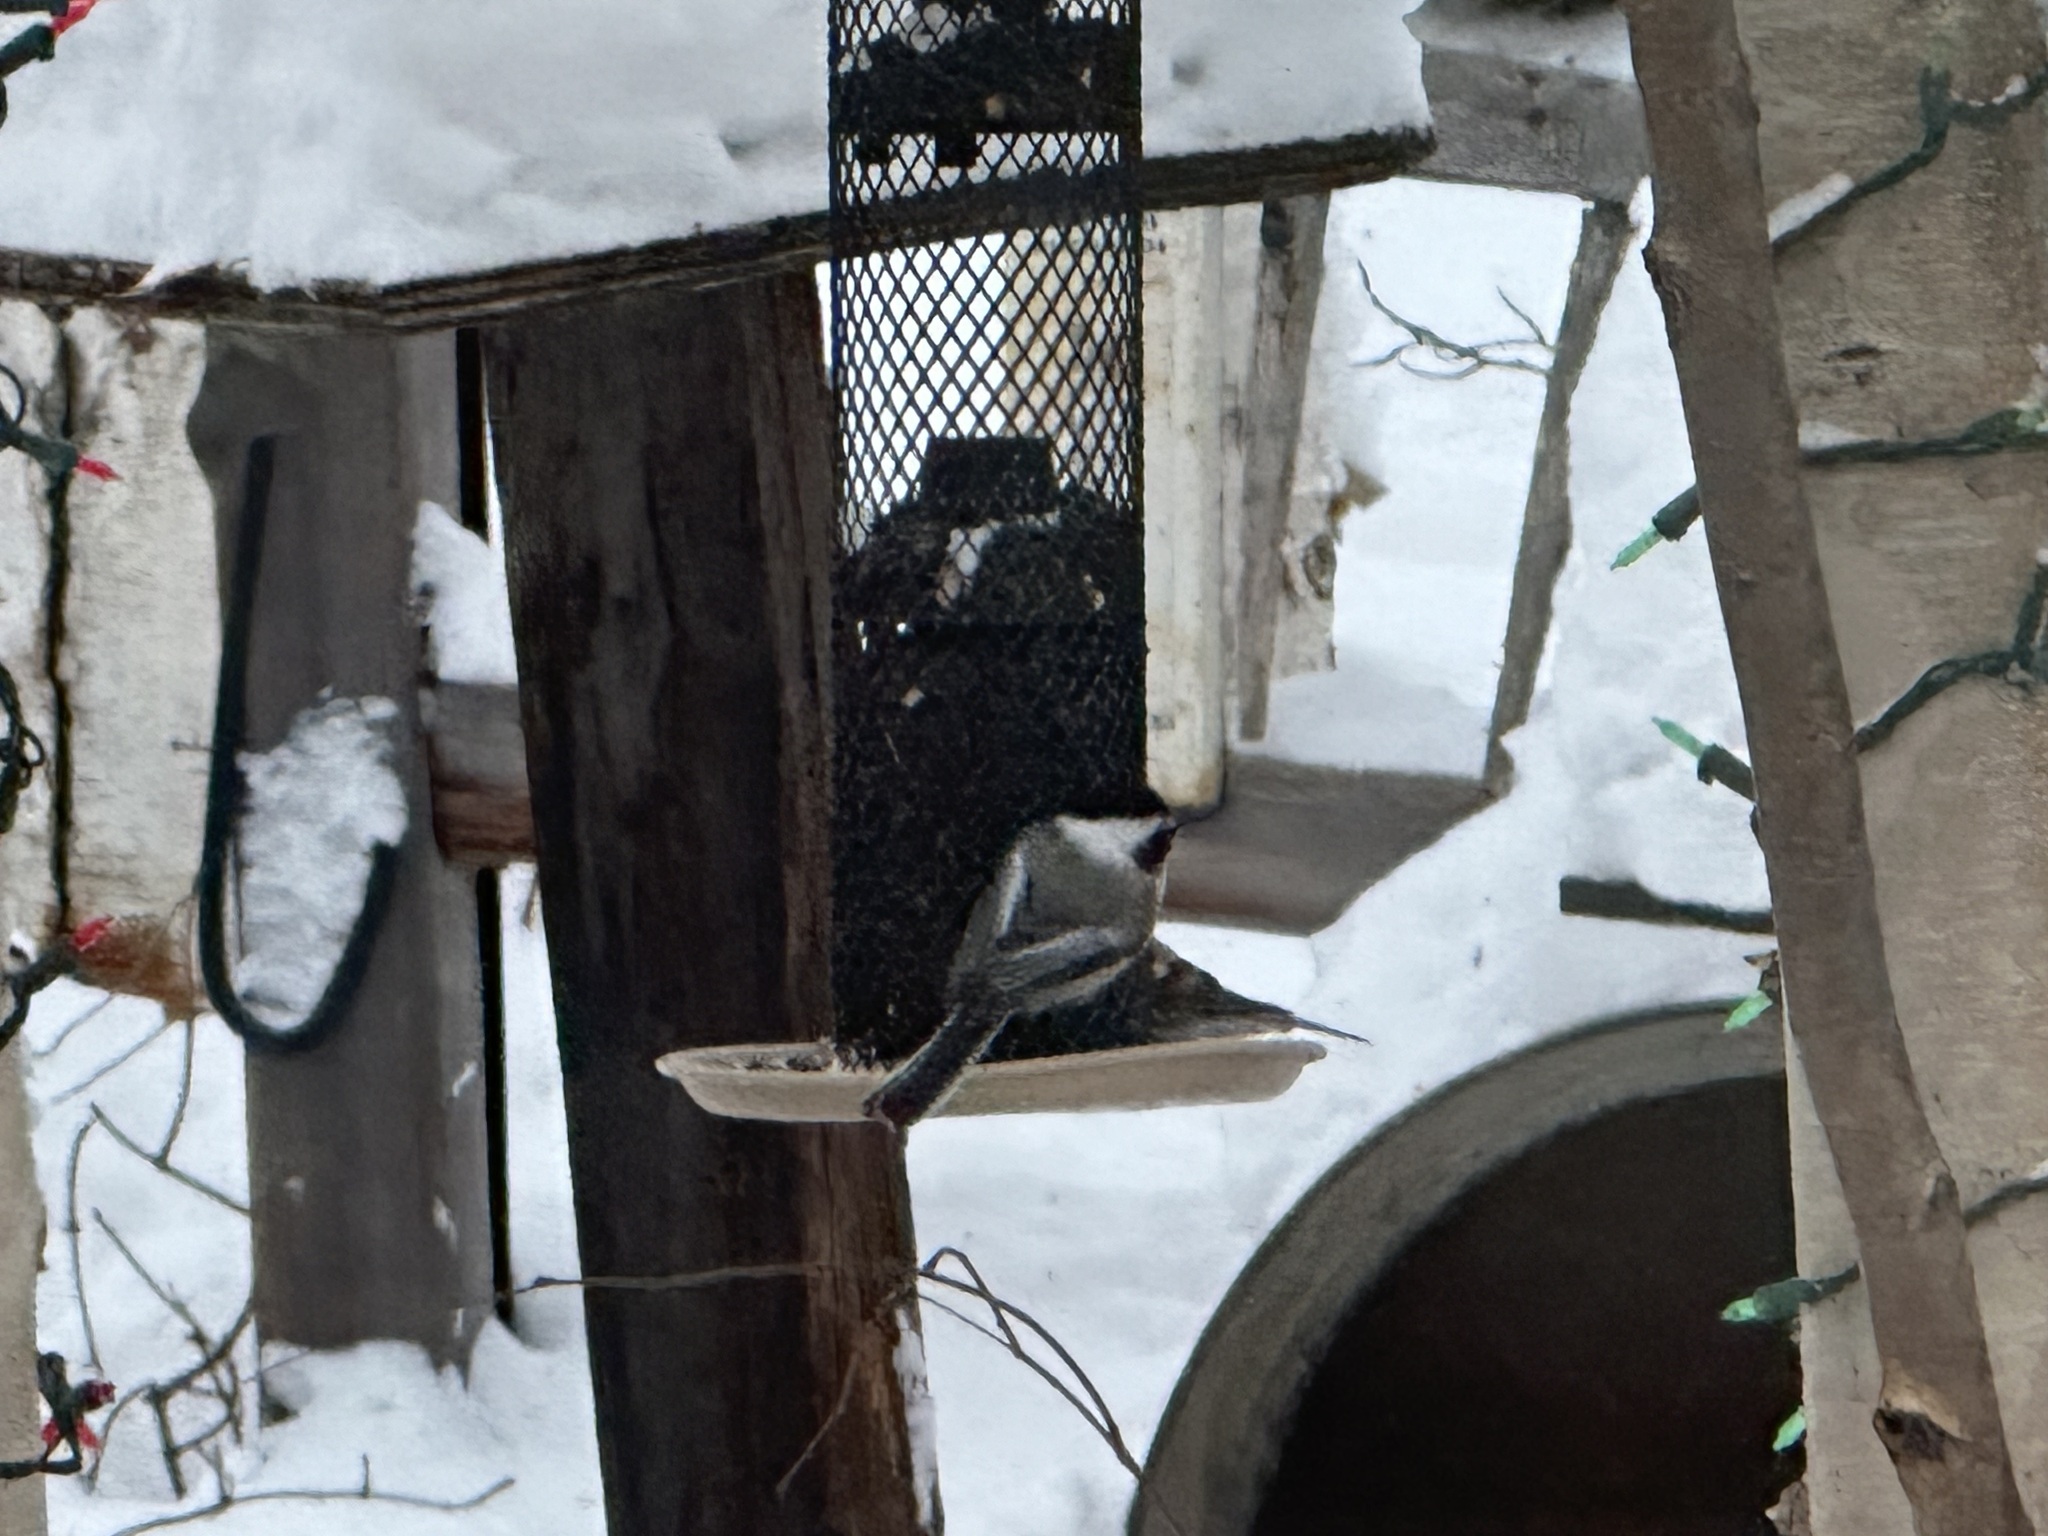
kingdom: Animalia
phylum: Chordata
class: Aves
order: Passeriformes
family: Paridae
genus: Poecile
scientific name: Poecile atricapillus
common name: Black-capped chickadee
